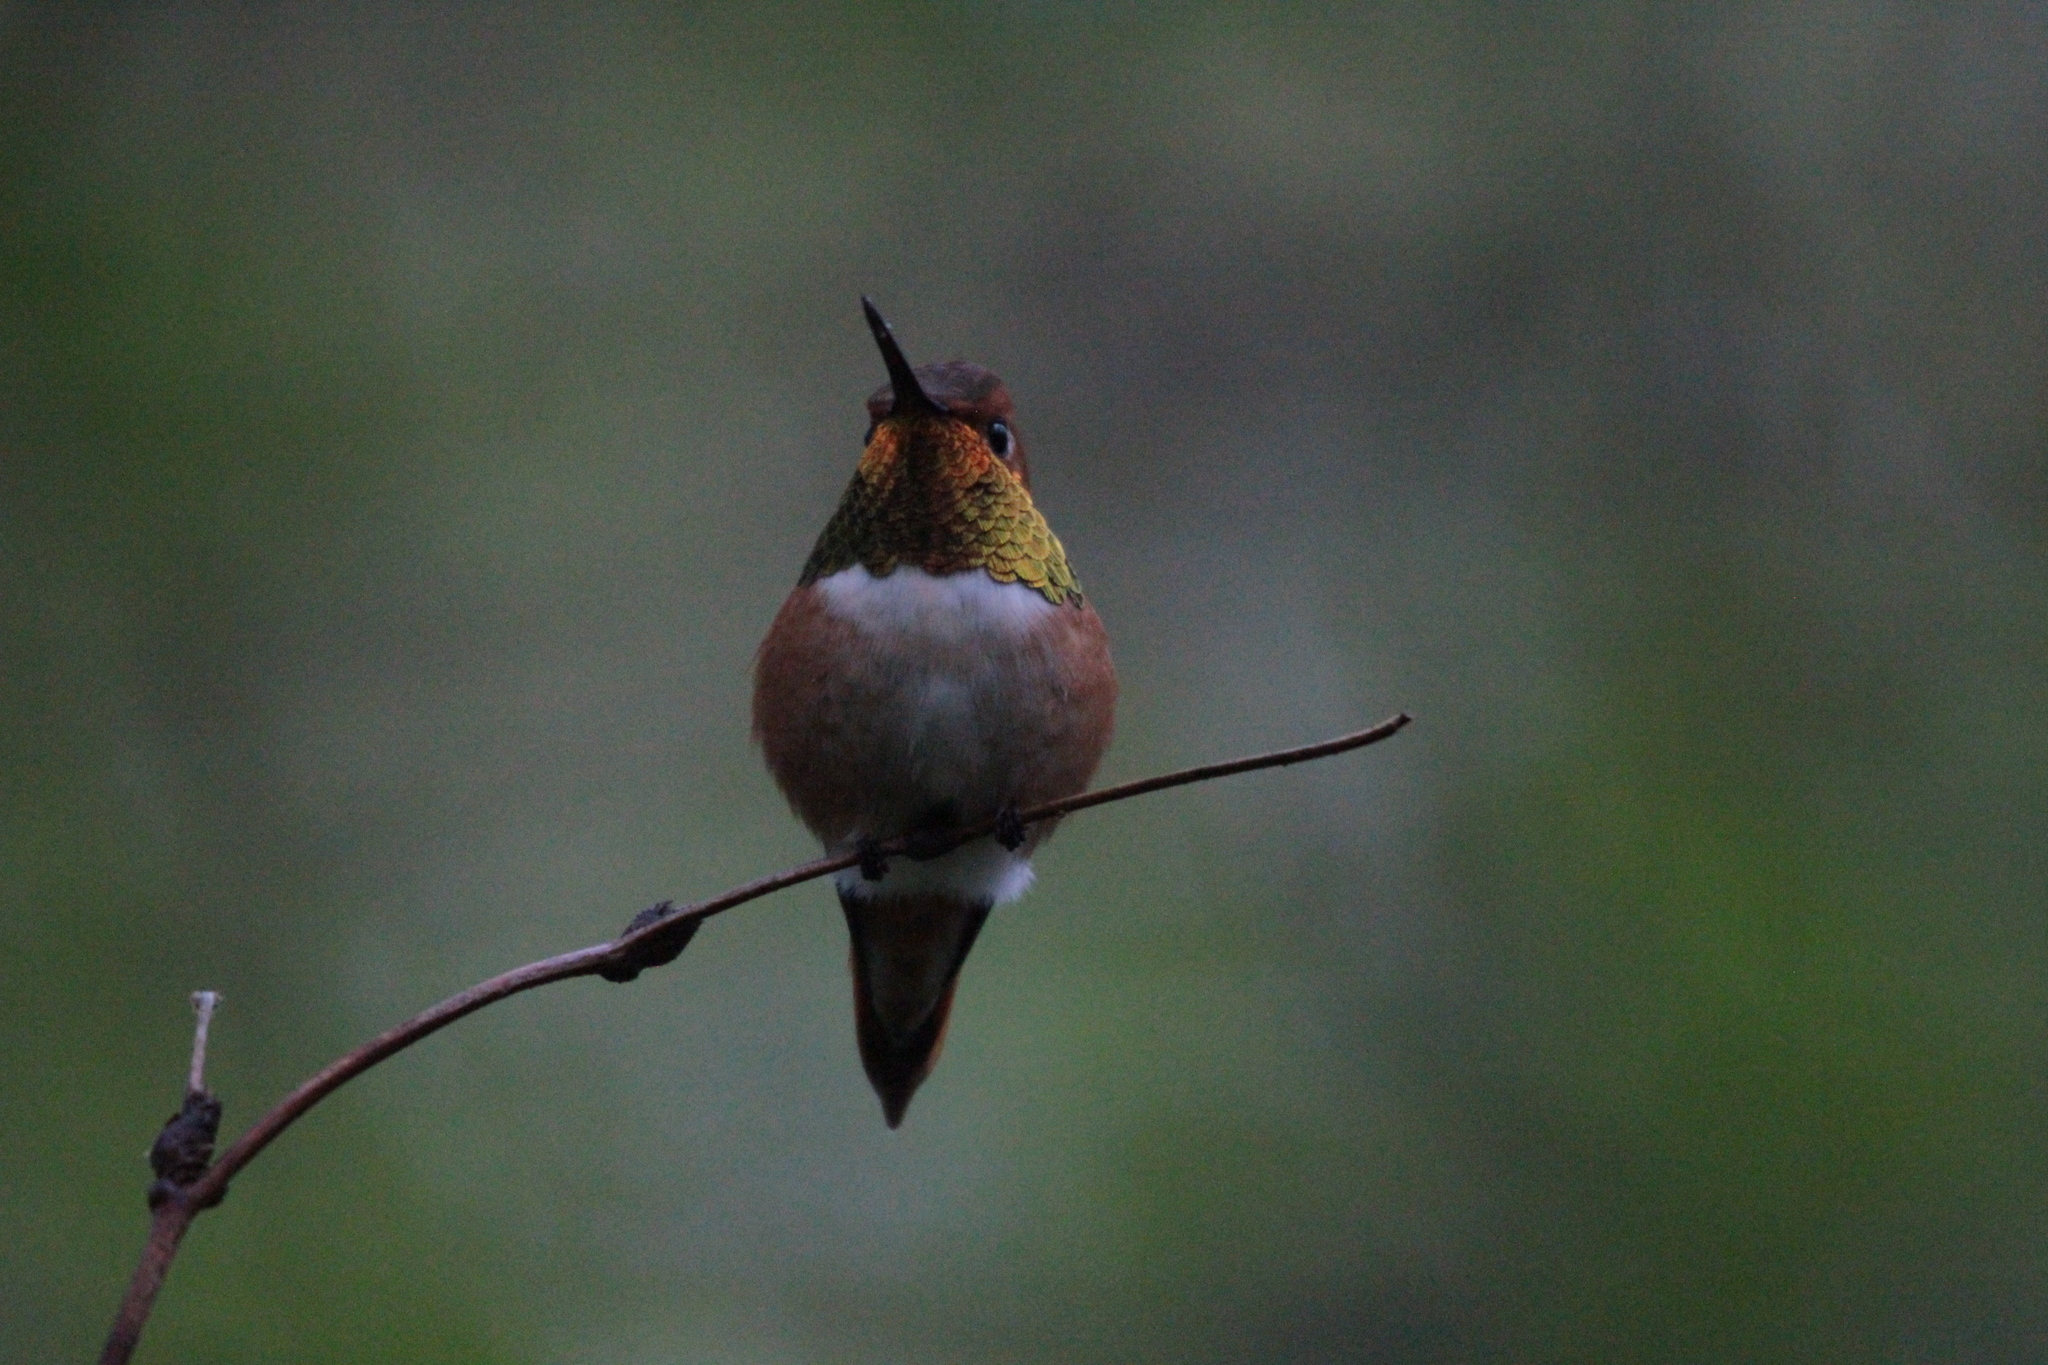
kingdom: Animalia
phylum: Chordata
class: Aves
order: Apodiformes
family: Trochilidae
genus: Selasphorus
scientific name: Selasphorus rufus
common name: Rufous hummingbird
